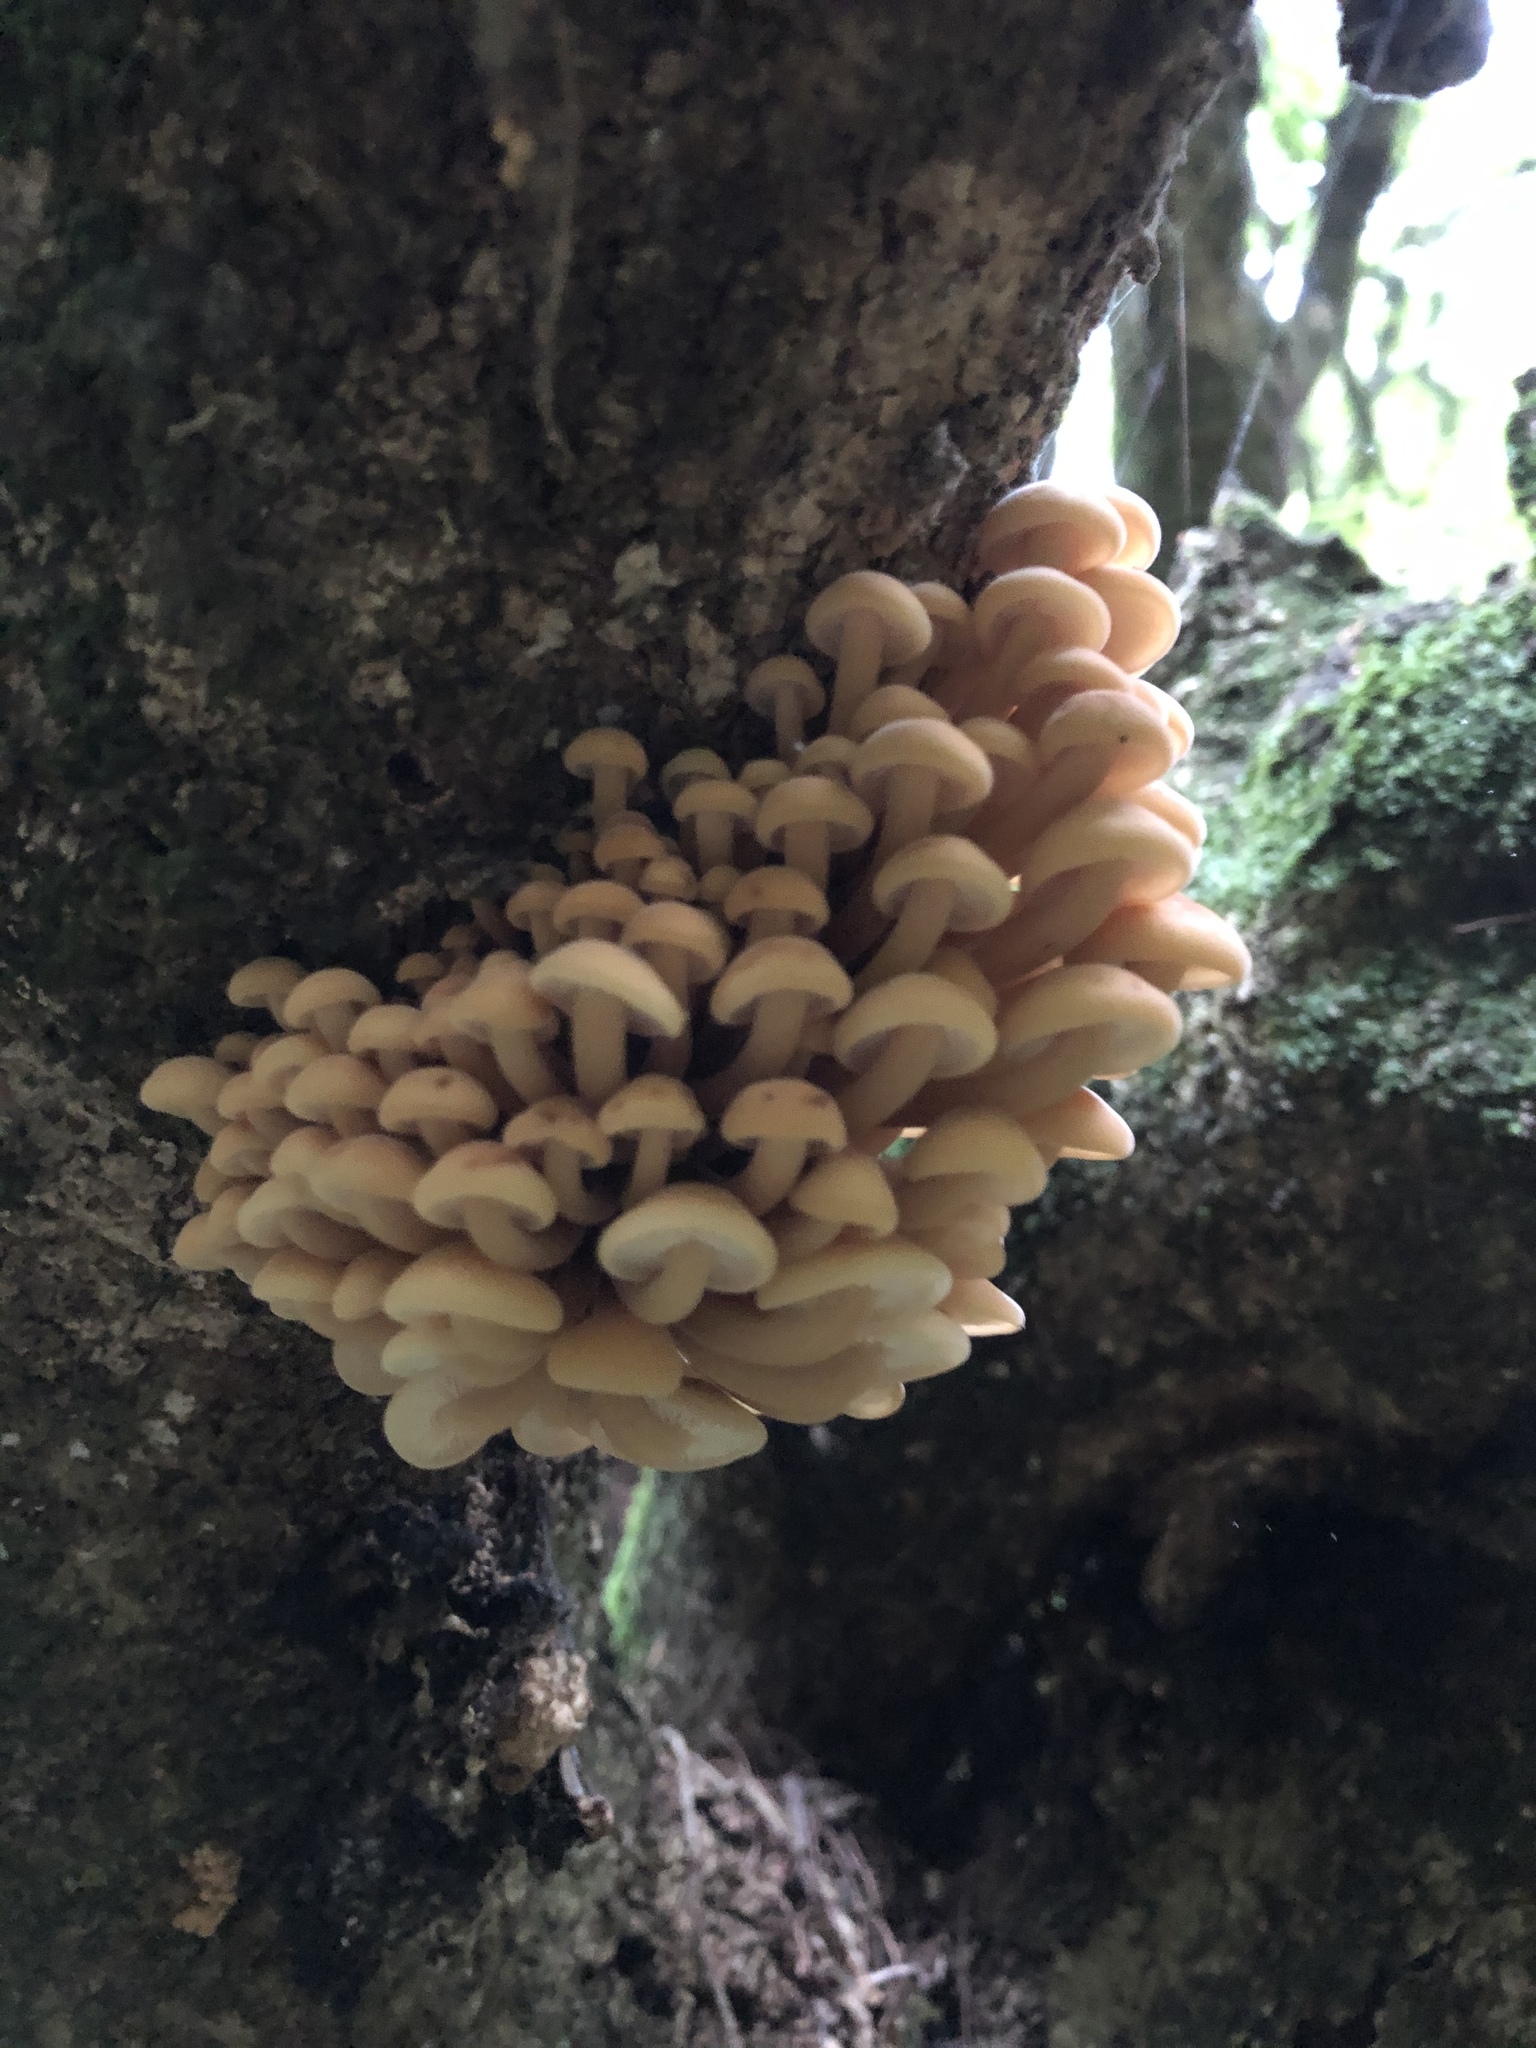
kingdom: Fungi
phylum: Basidiomycota
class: Agaricomycetes
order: Agaricales
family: Physalacriaceae
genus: Flammulina
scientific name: Flammulina velutipes
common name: Velvet shank
